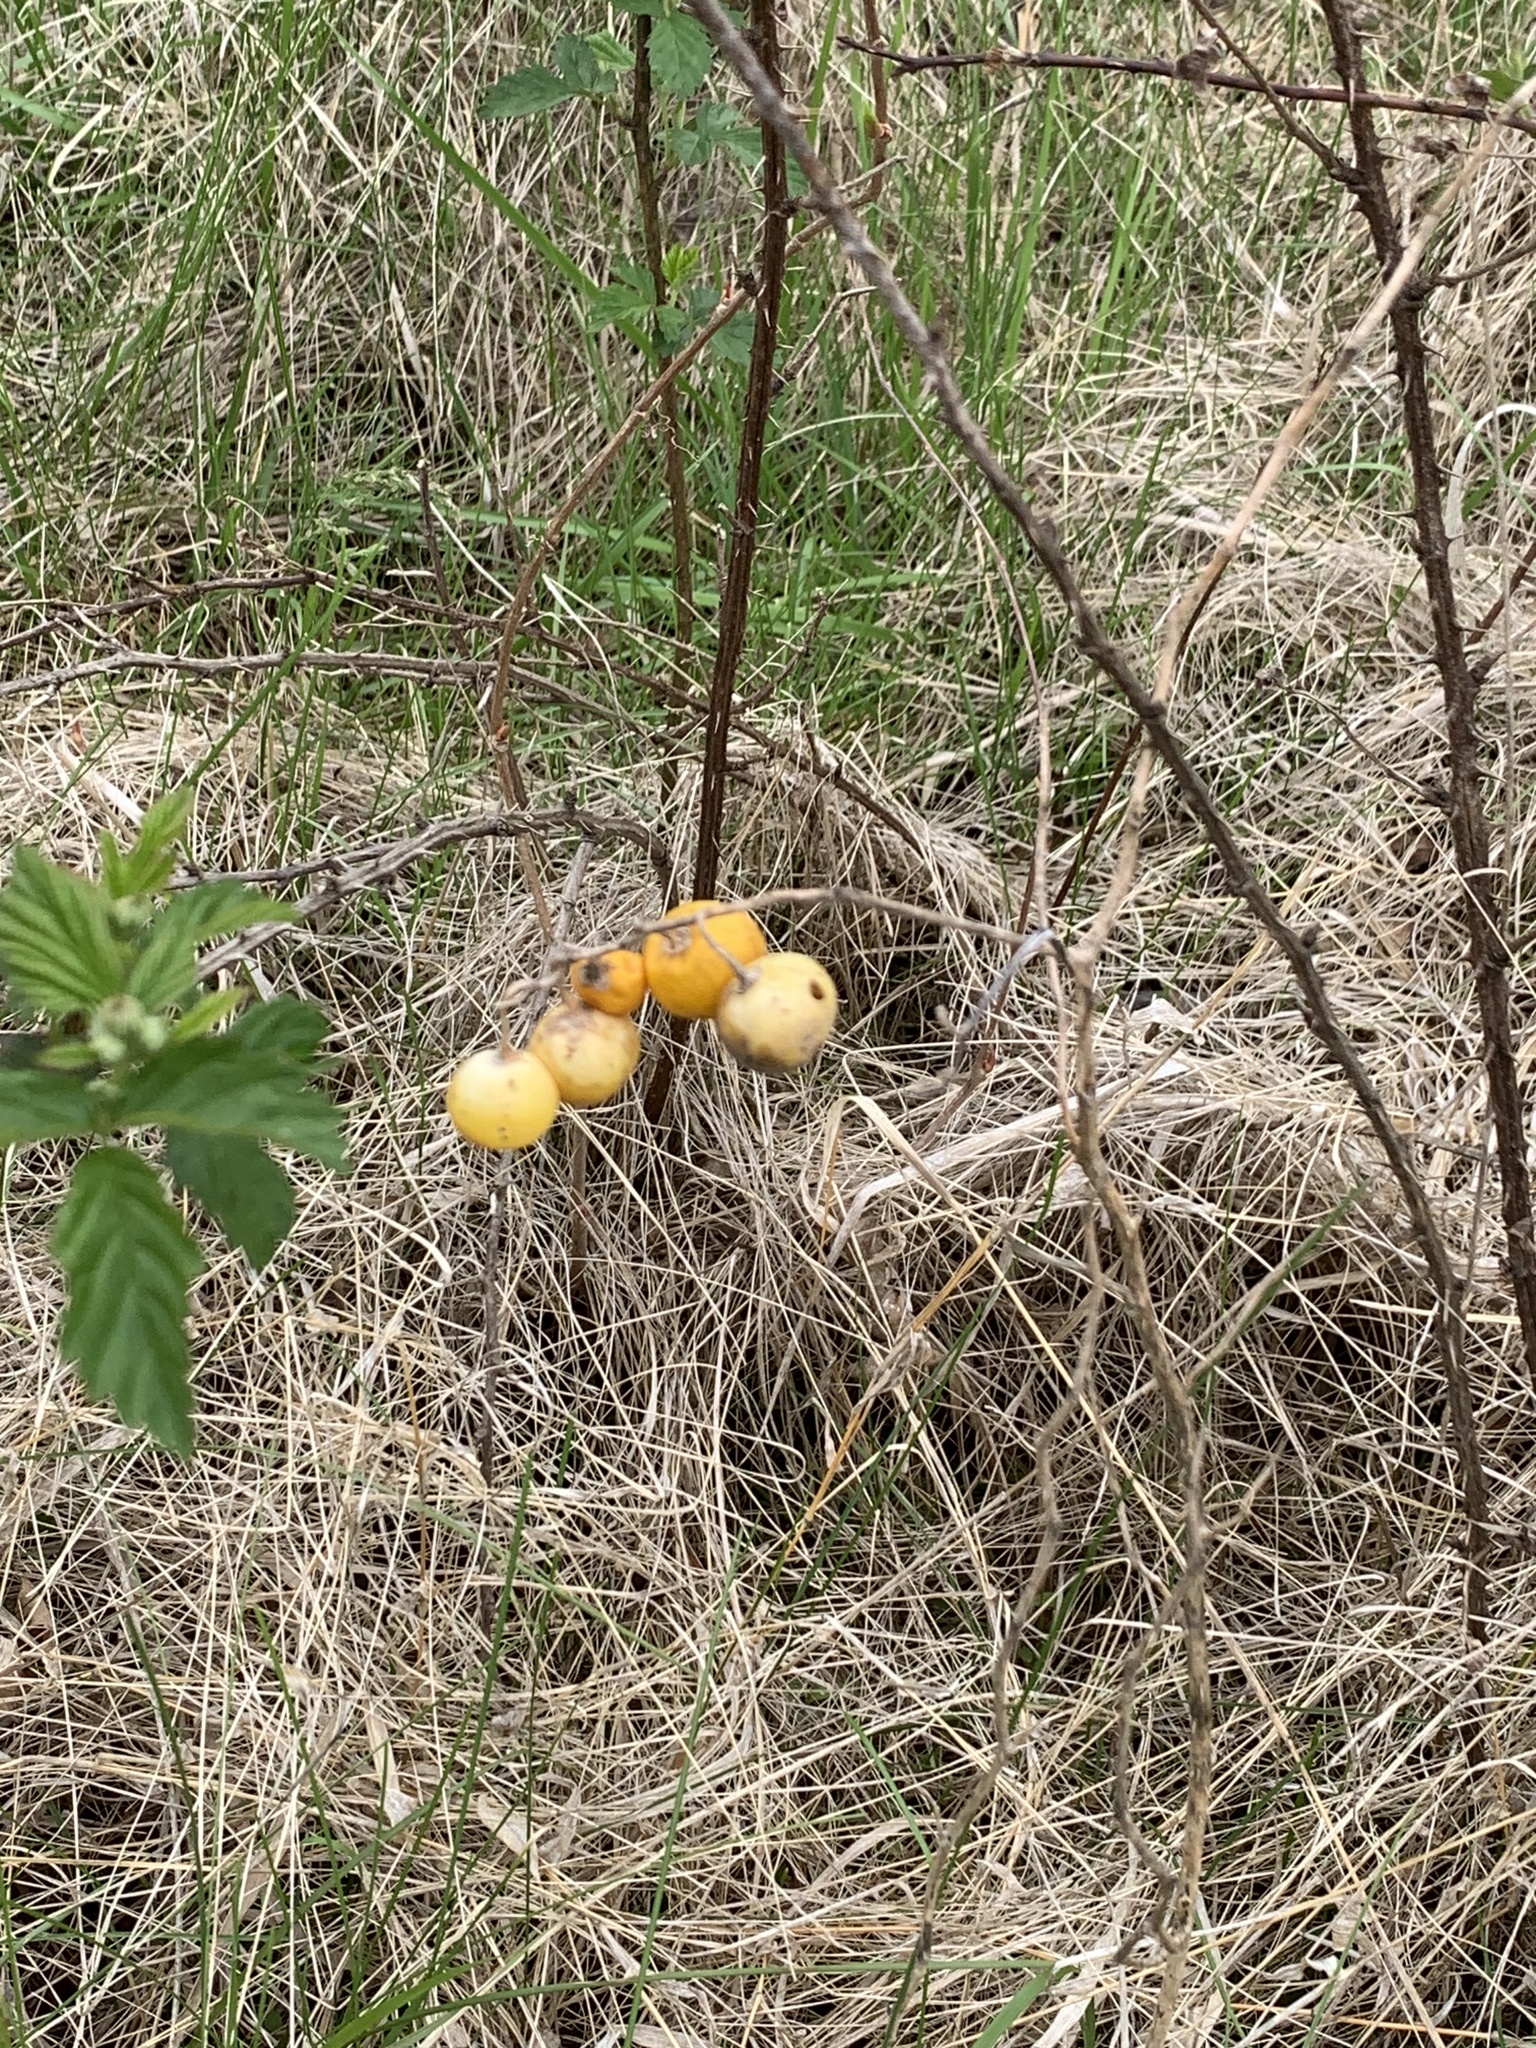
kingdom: Plantae
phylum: Tracheophyta
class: Magnoliopsida
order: Solanales
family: Solanaceae
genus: Solanum
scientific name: Solanum carolinense
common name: Horse-nettle
